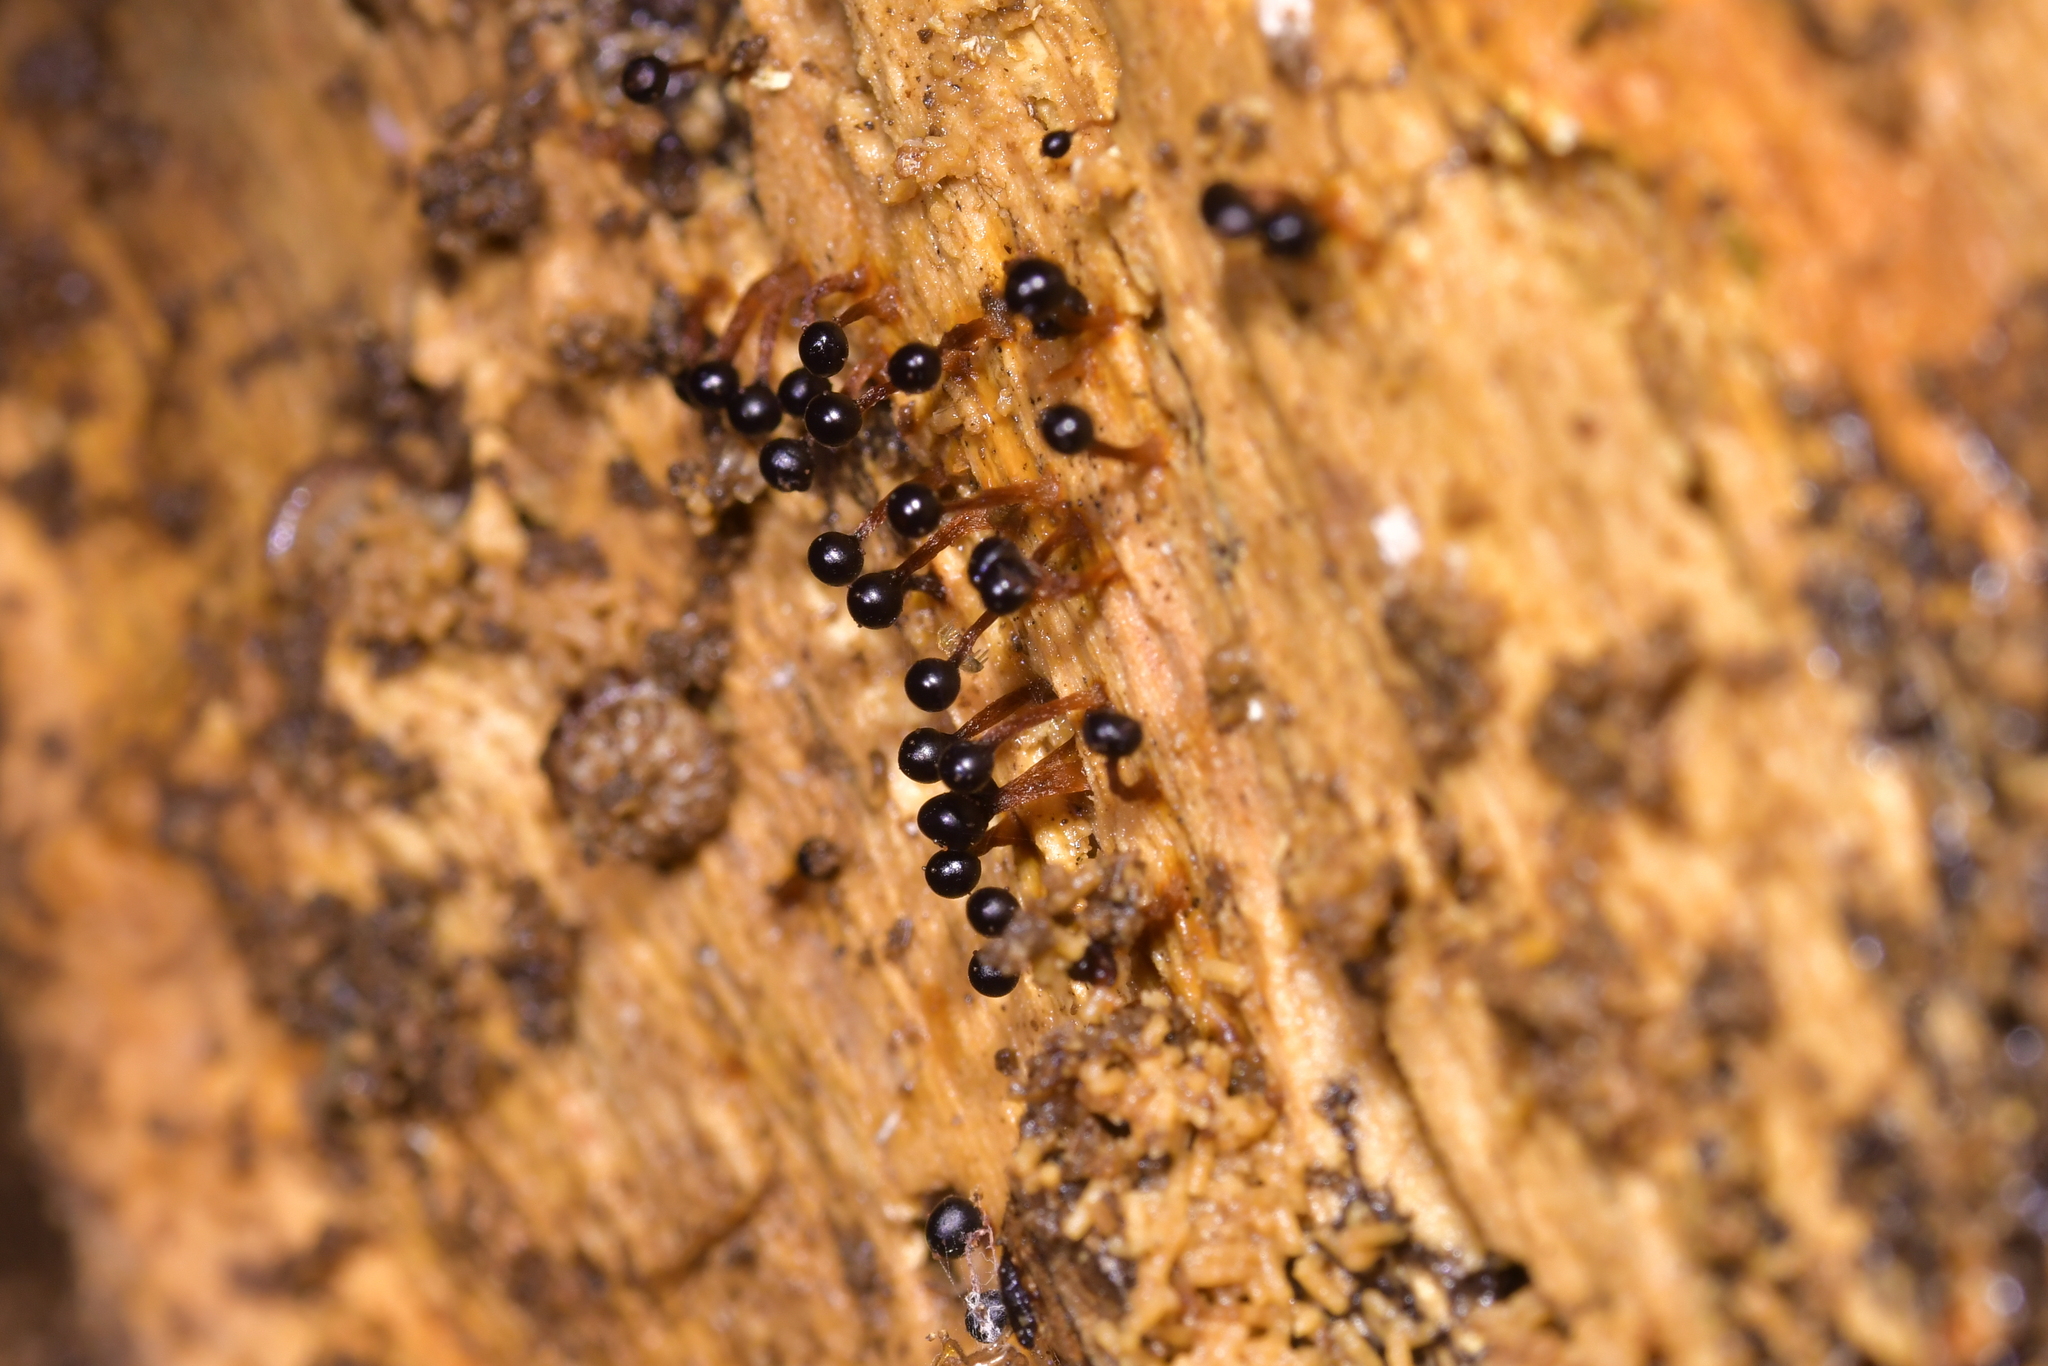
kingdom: Protozoa
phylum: Mycetozoa
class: Myxomycetes
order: Trichiales
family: Trichiaceae
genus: Metatrichia
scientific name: Metatrichia floriformis
